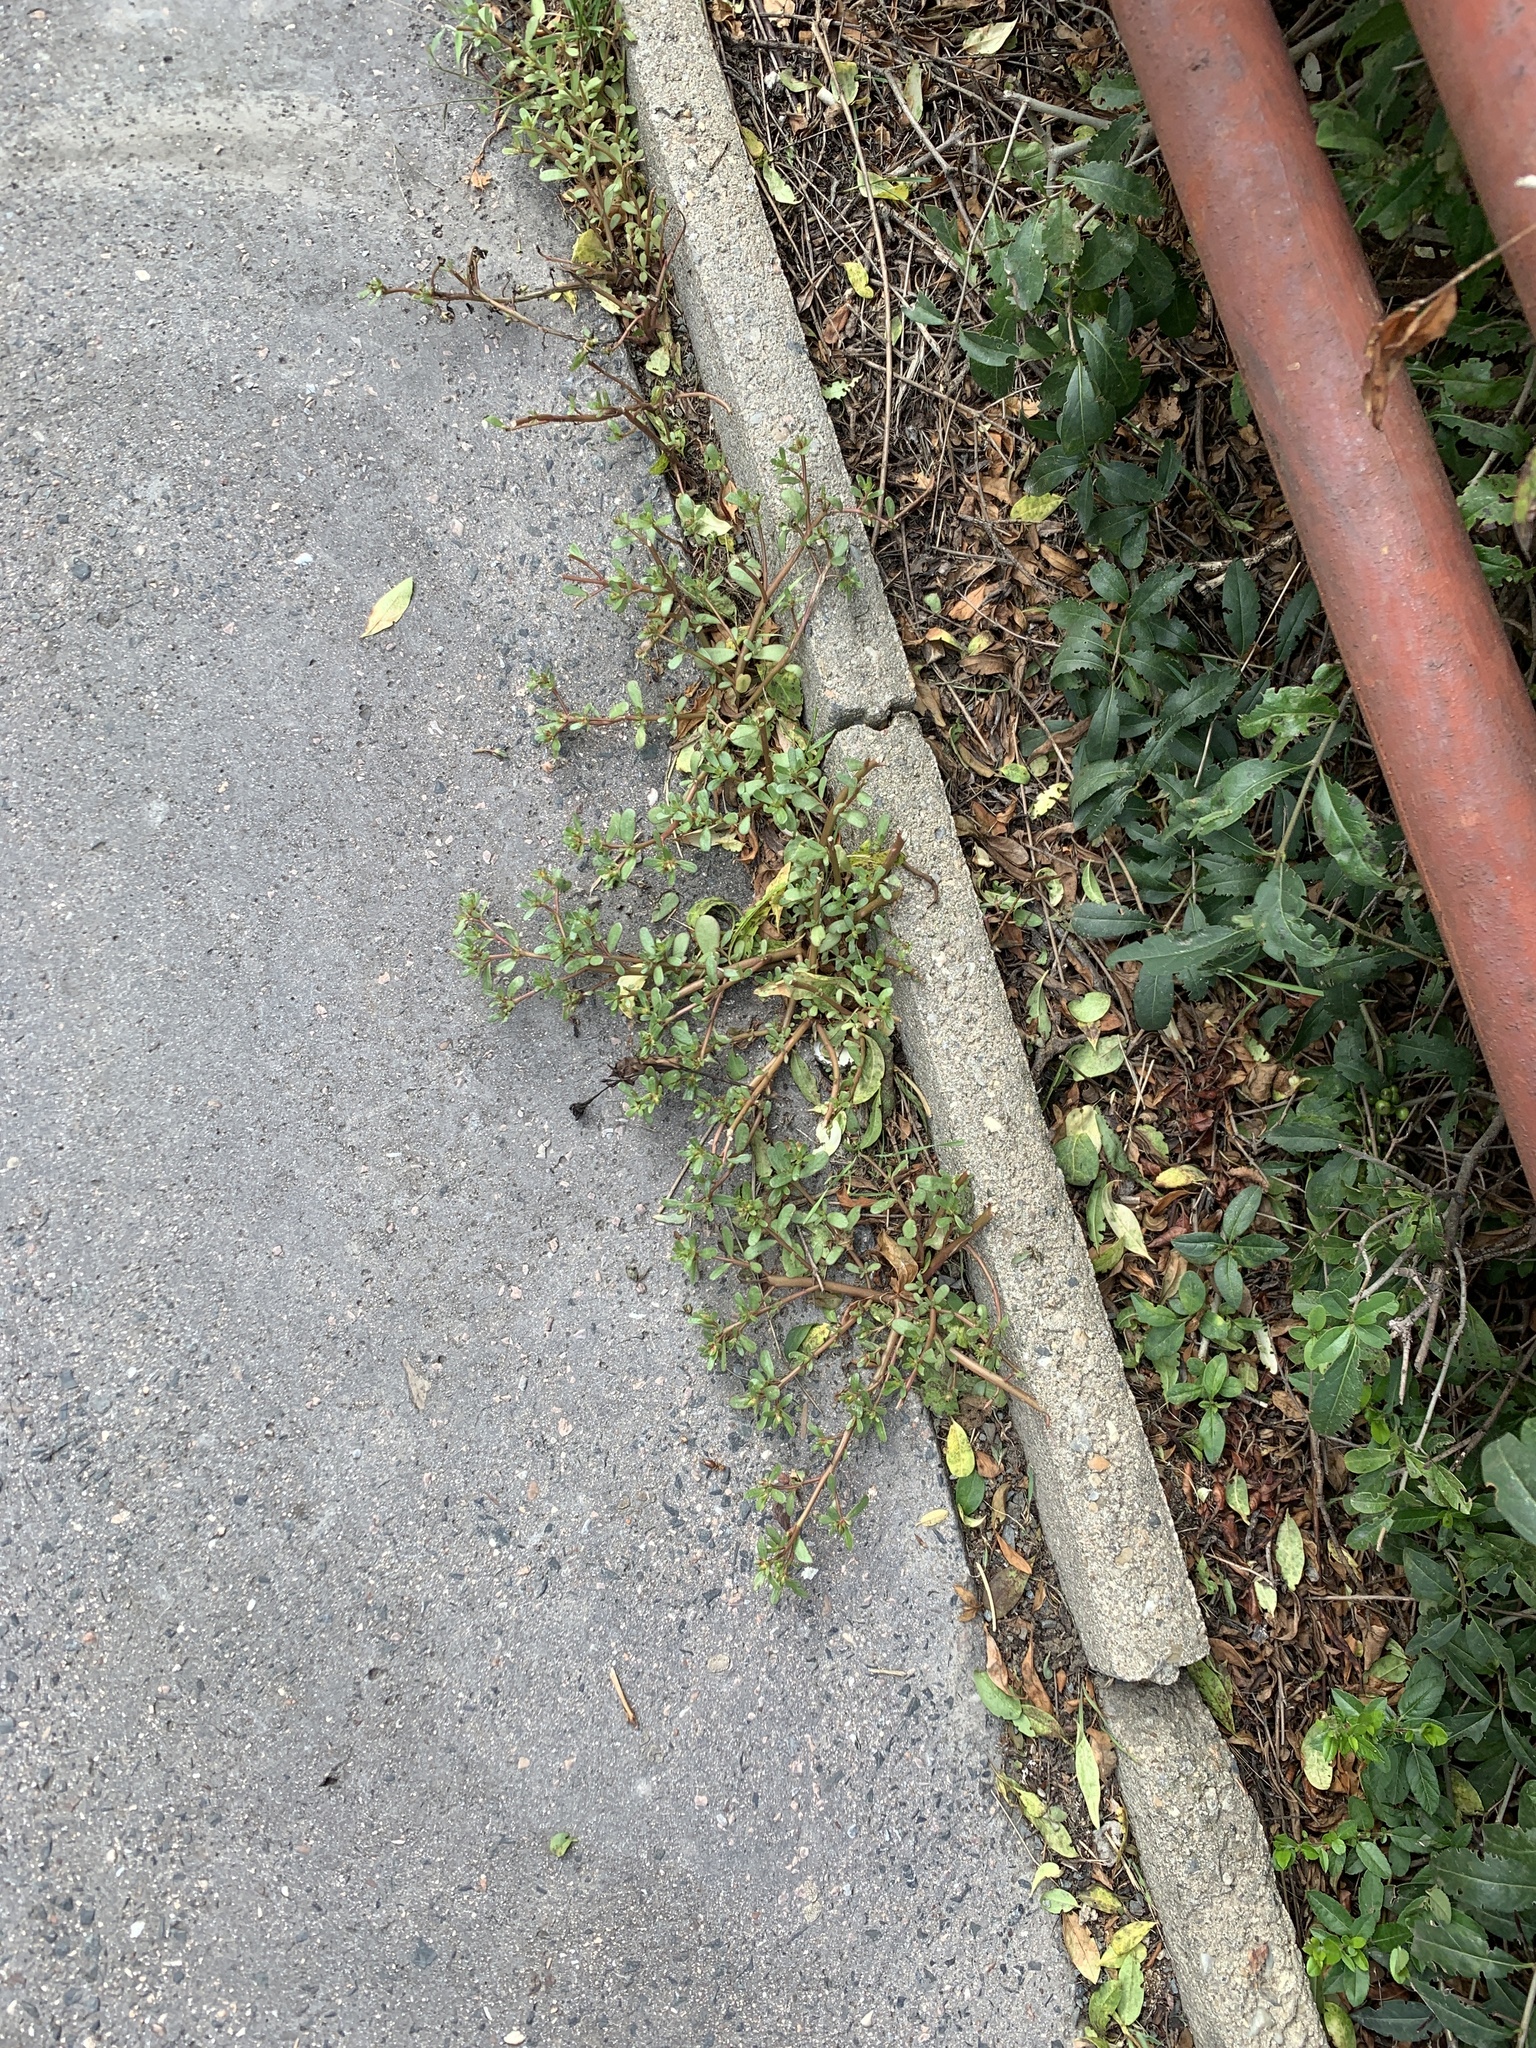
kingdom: Plantae
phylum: Tracheophyta
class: Magnoliopsida
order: Caryophyllales
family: Portulacaceae
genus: Portulaca
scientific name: Portulaca oleracea
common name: Common purslane
